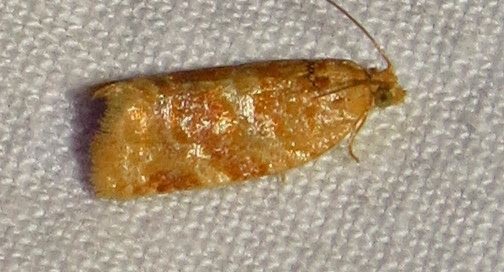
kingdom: Animalia
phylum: Arthropoda
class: Insecta
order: Lepidoptera
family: Tortricidae
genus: Argyrotaenia
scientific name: Argyrotaenia pinatubana
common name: Pine tube moth
